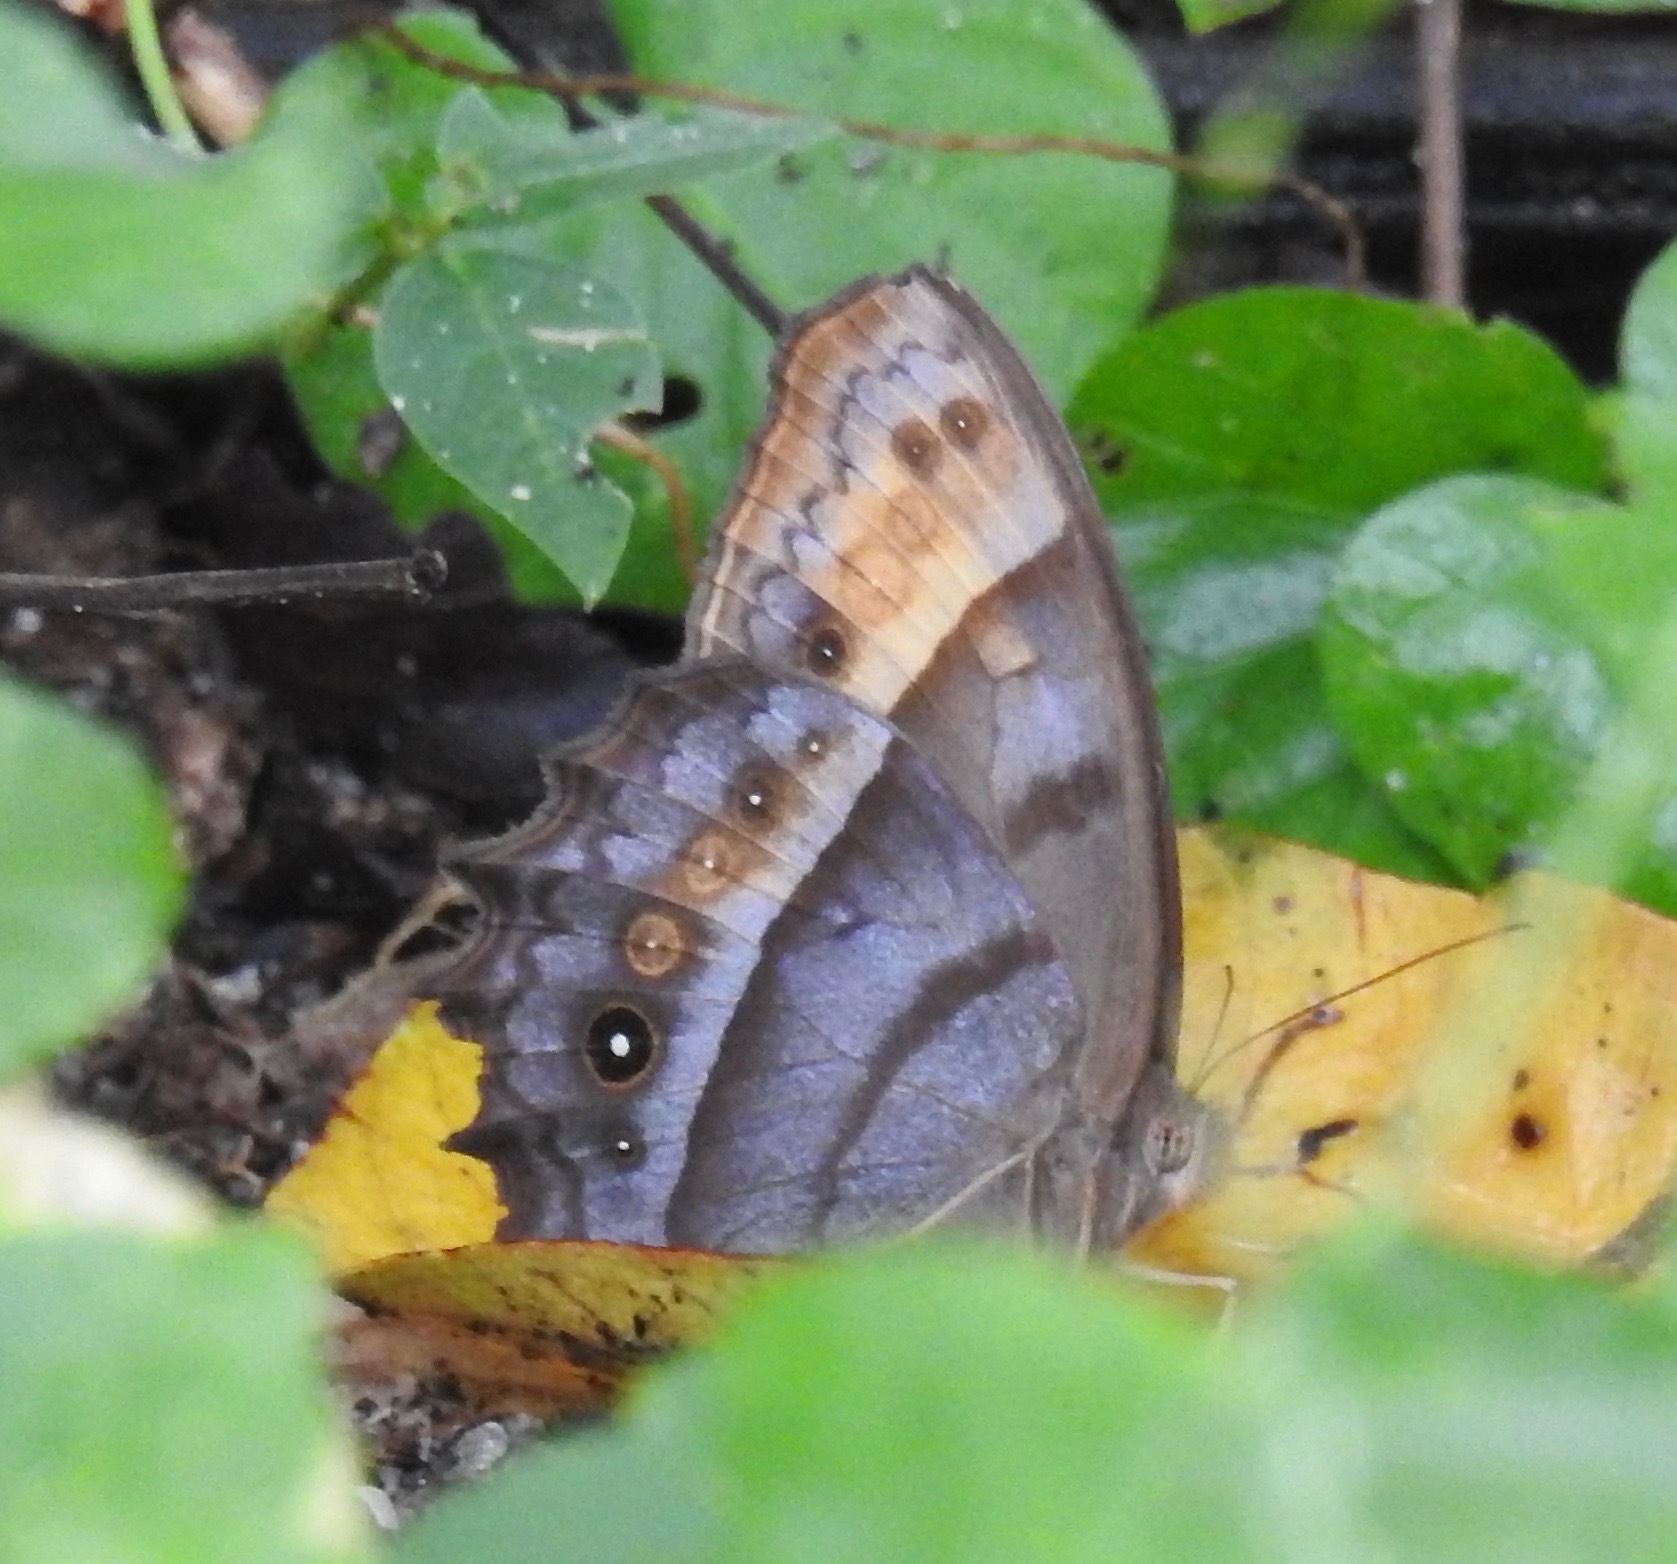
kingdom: Animalia
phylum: Arthropoda
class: Insecta
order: Lepidoptera
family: Nymphalidae
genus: Taygetis
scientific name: Taygetis andromeda
